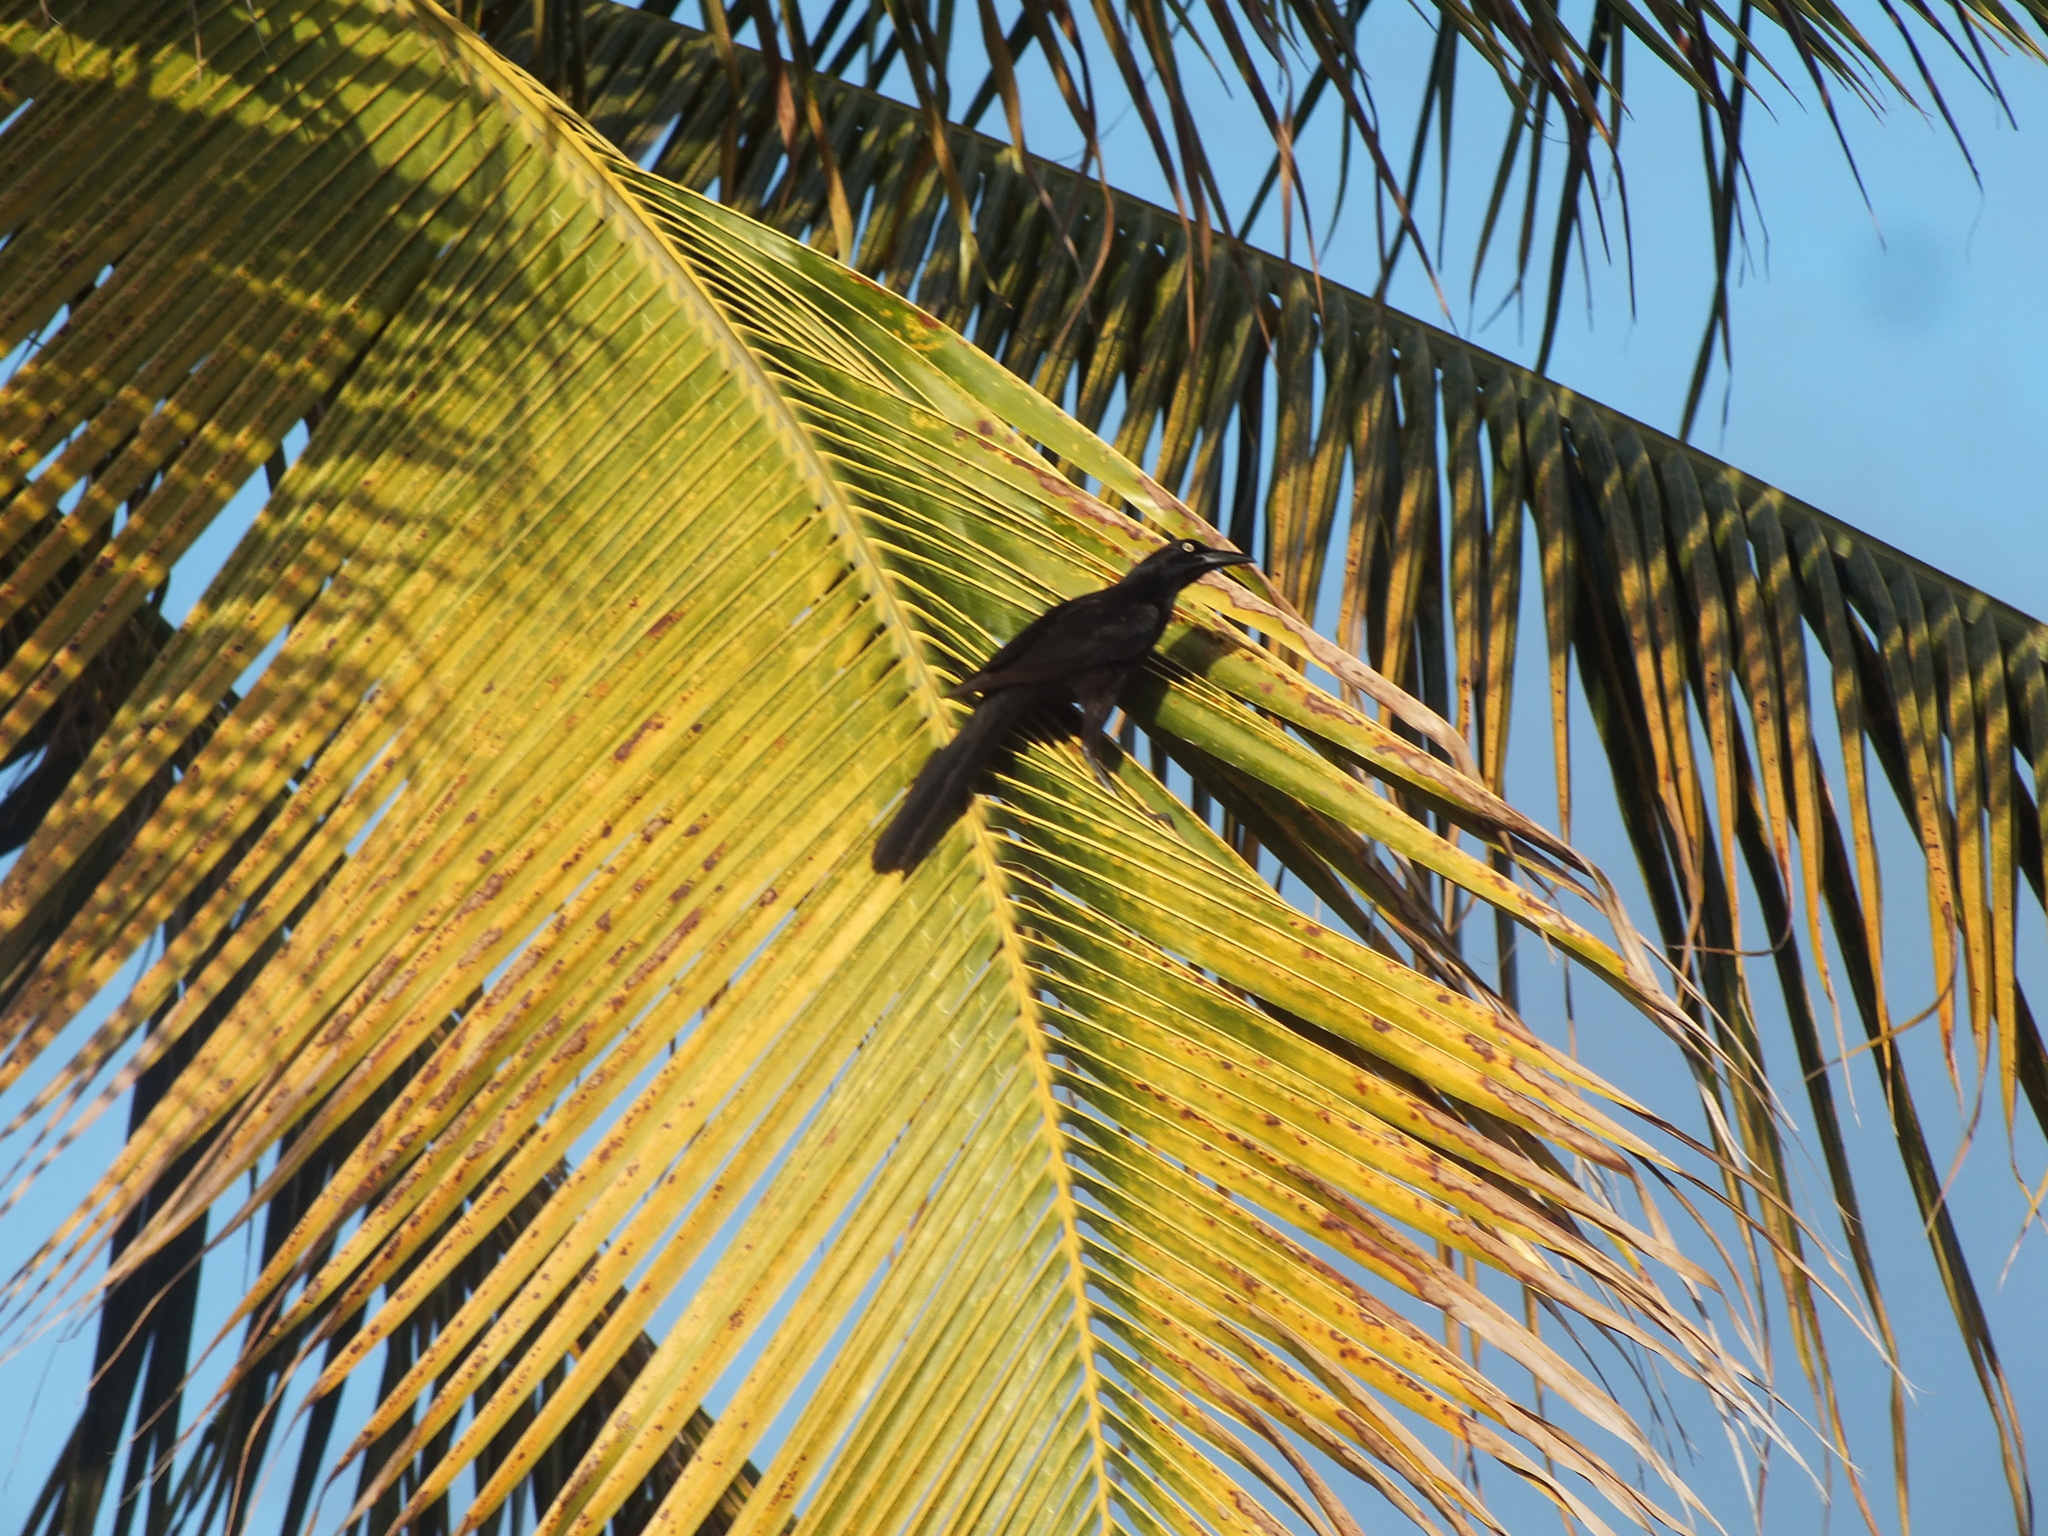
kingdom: Animalia
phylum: Chordata
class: Aves
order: Passeriformes
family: Icteridae
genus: Quiscalus
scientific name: Quiscalus mexicanus
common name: Great-tailed grackle
